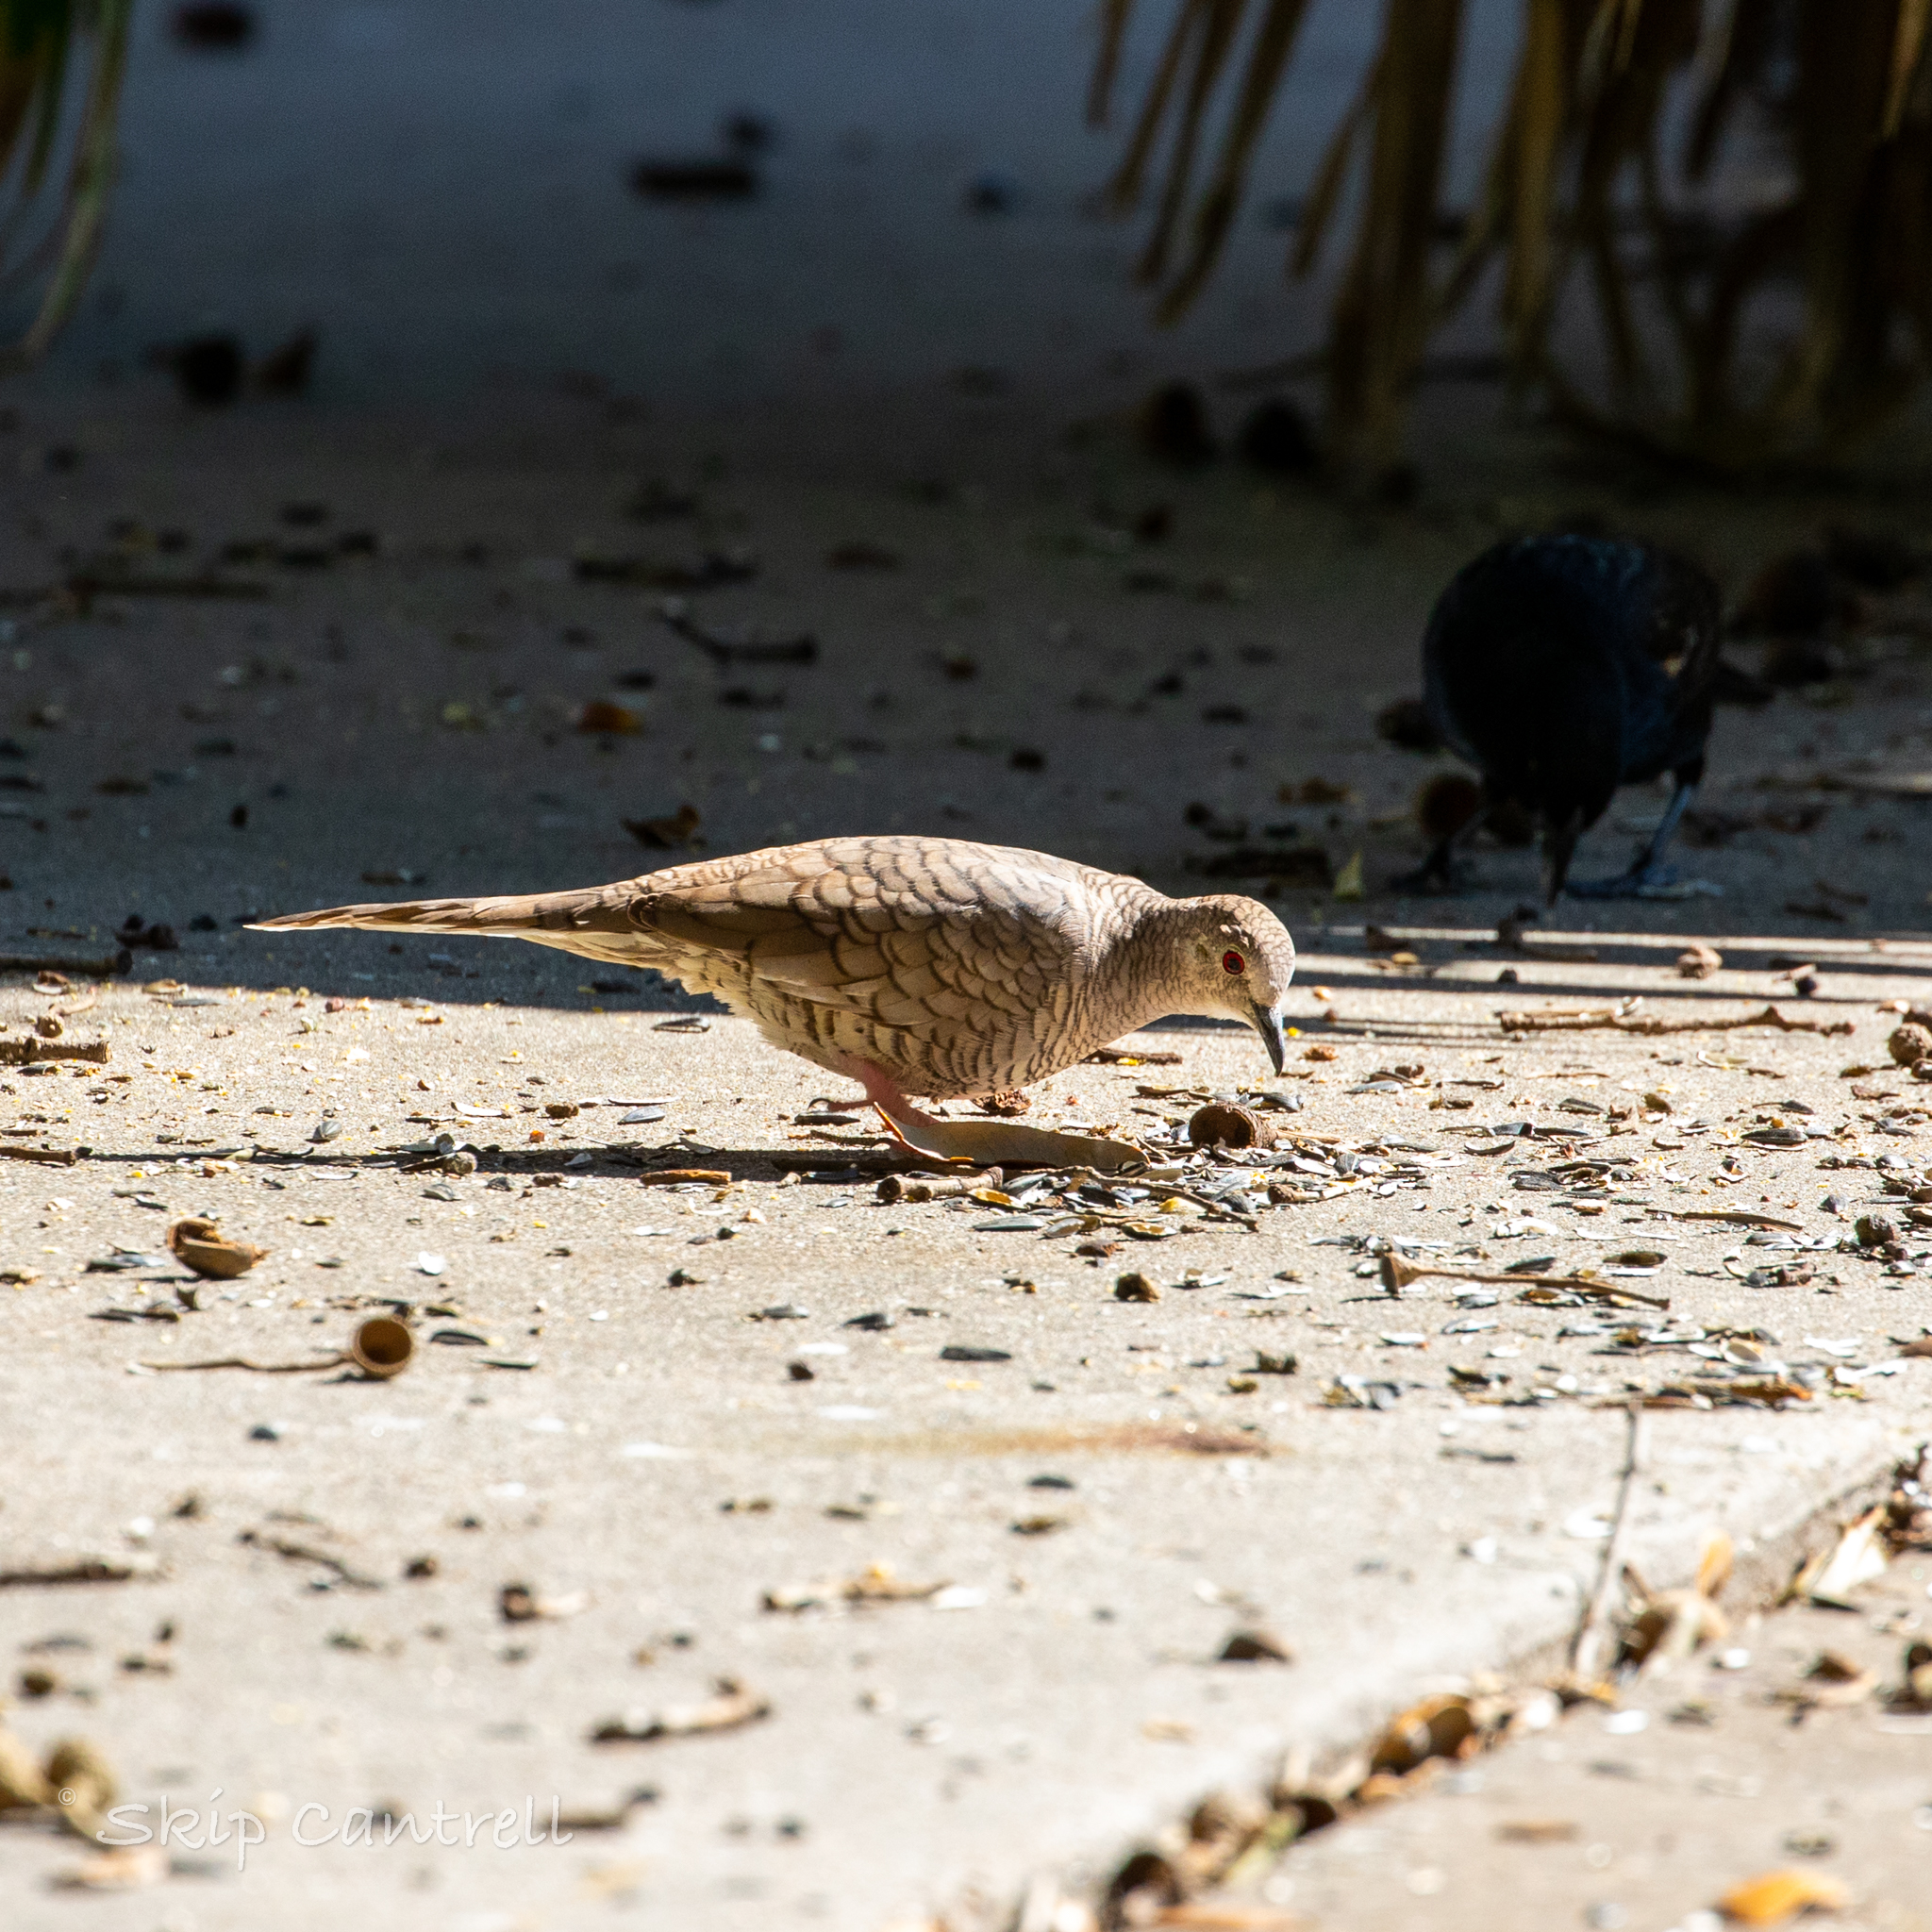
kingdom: Animalia
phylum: Chordata
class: Aves
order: Columbiformes
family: Columbidae
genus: Columbina
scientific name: Columbina inca
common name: Inca dove
